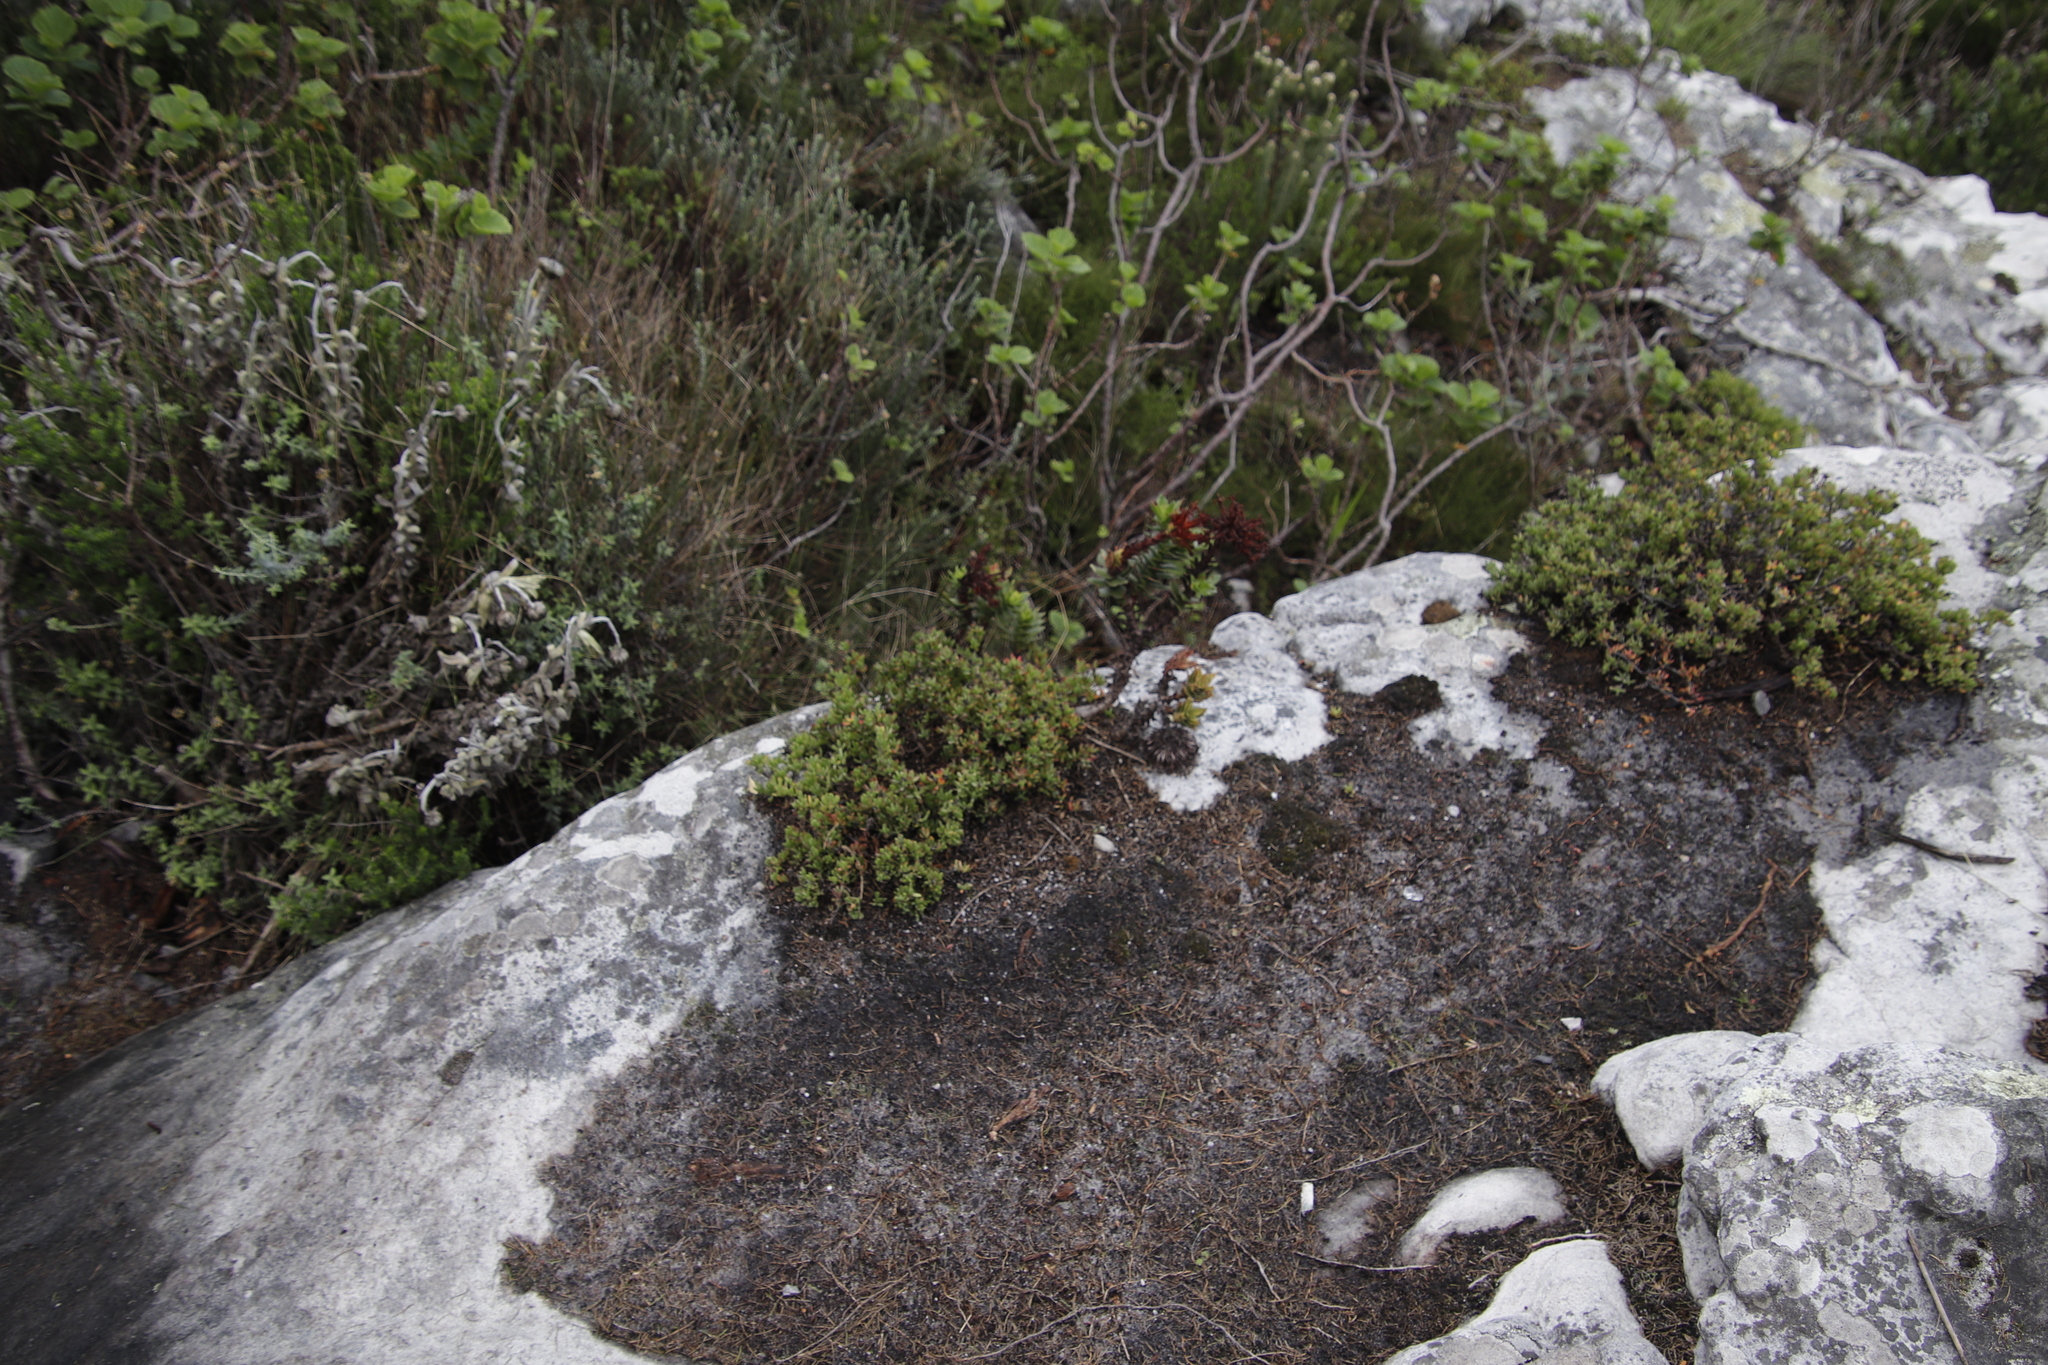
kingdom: Plantae
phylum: Tracheophyta
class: Magnoliopsida
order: Saxifragales
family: Crassulaceae
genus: Crassula
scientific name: Crassula coccinea
